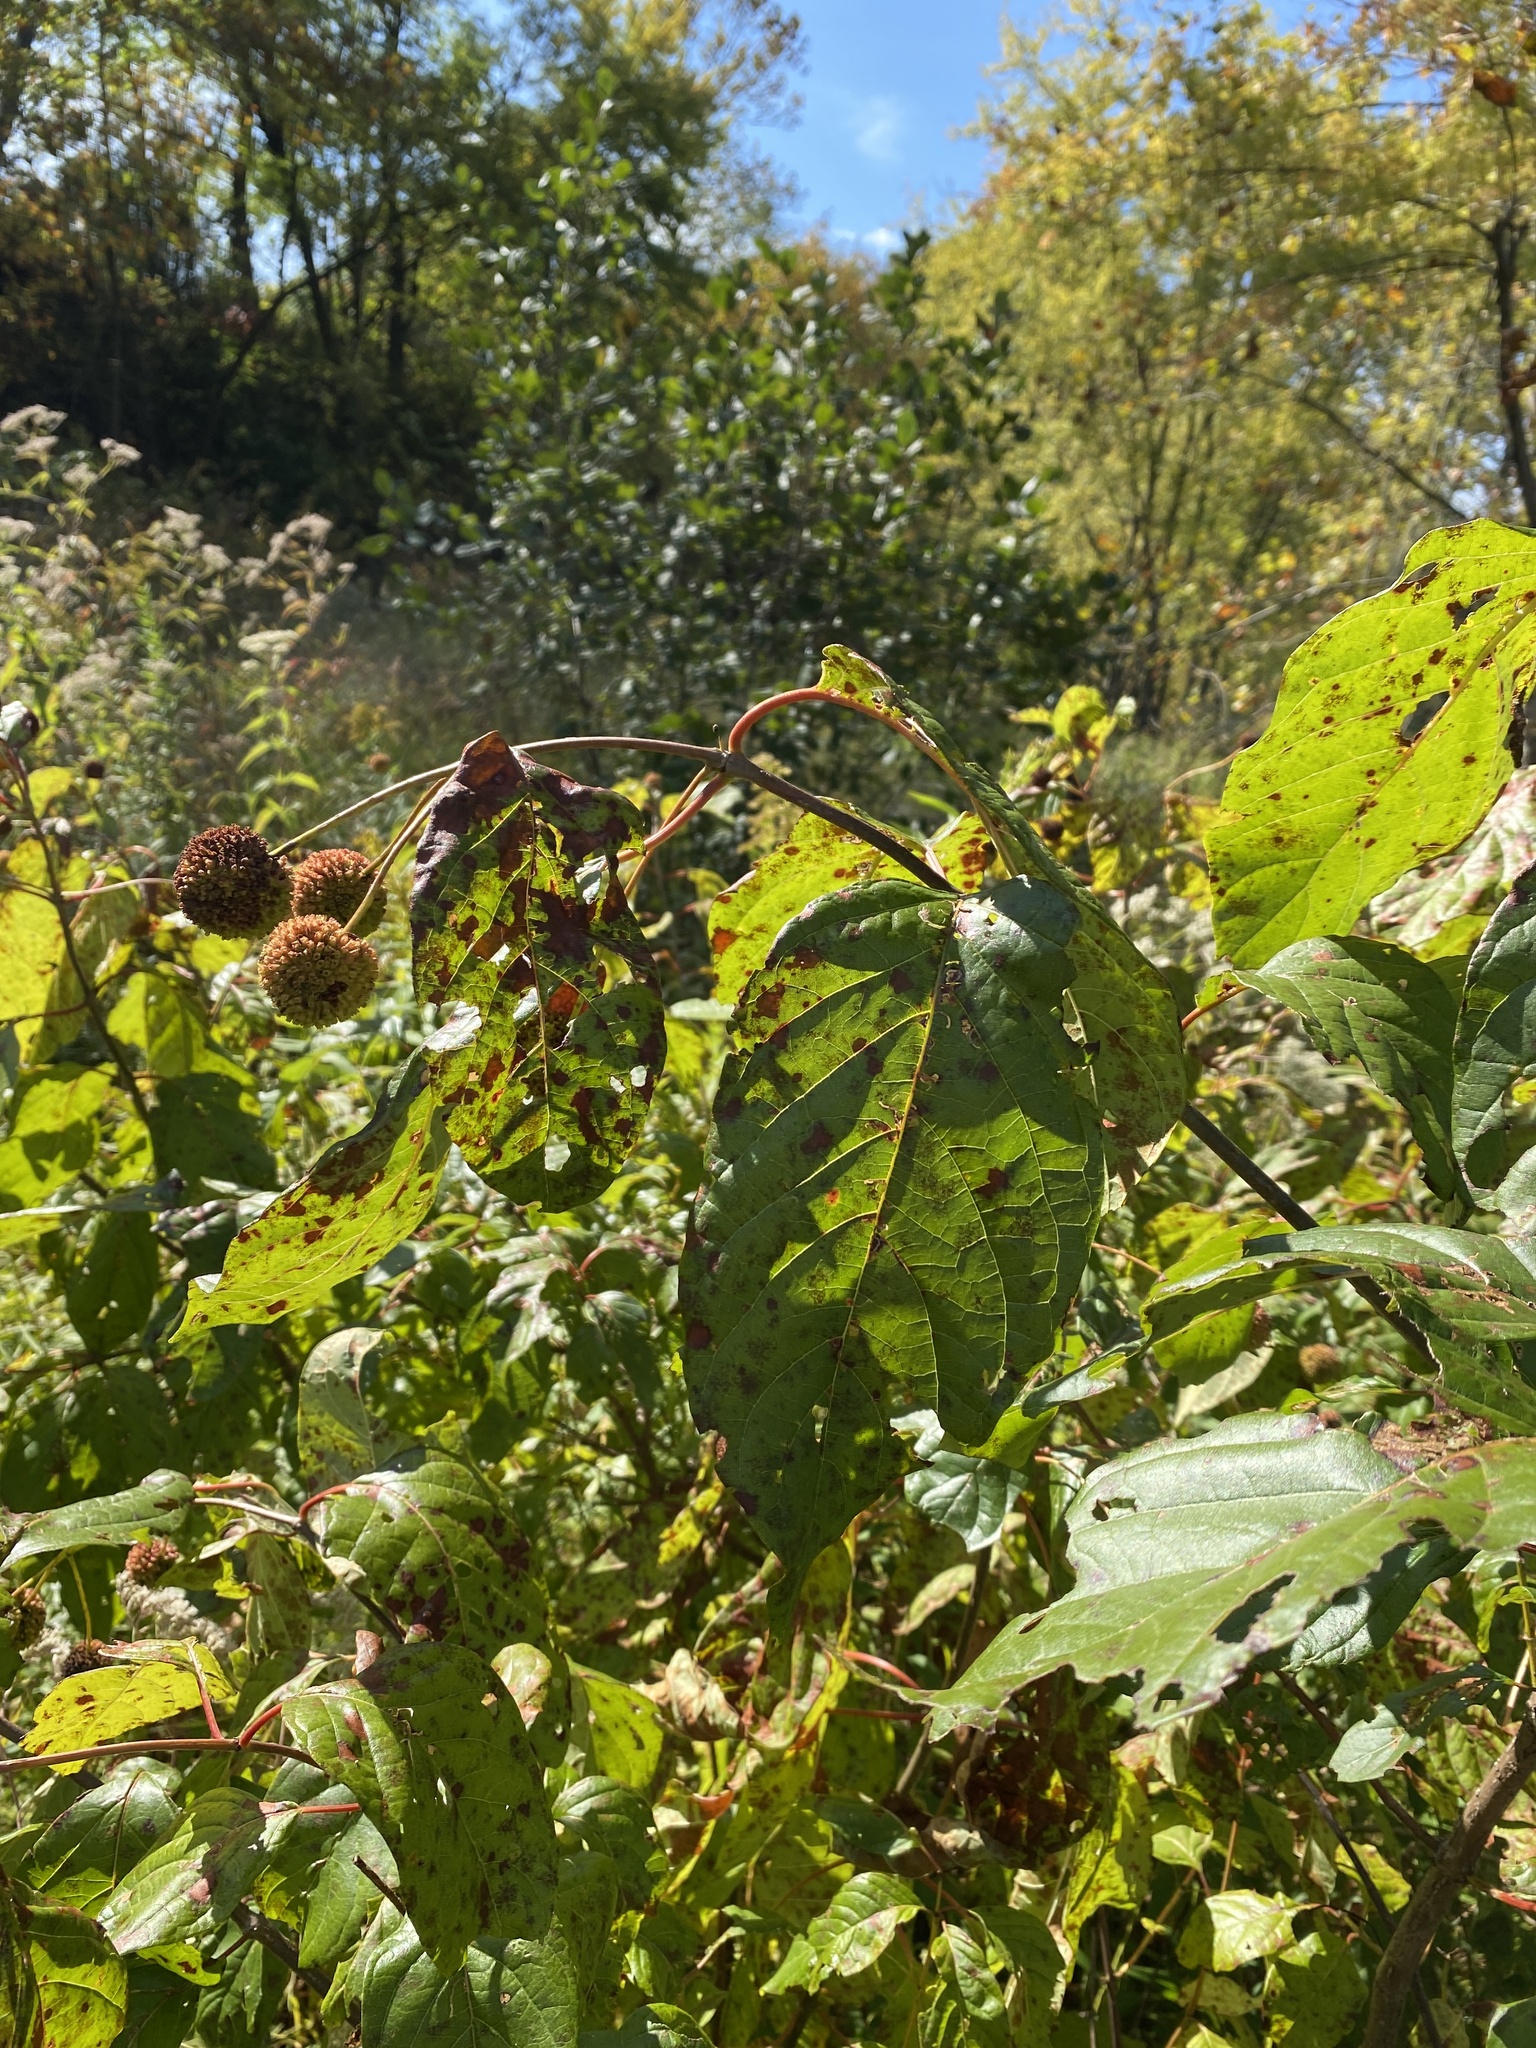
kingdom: Plantae
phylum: Tracheophyta
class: Magnoliopsida
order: Gentianales
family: Rubiaceae
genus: Cephalanthus
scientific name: Cephalanthus occidentalis
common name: Button-willow
